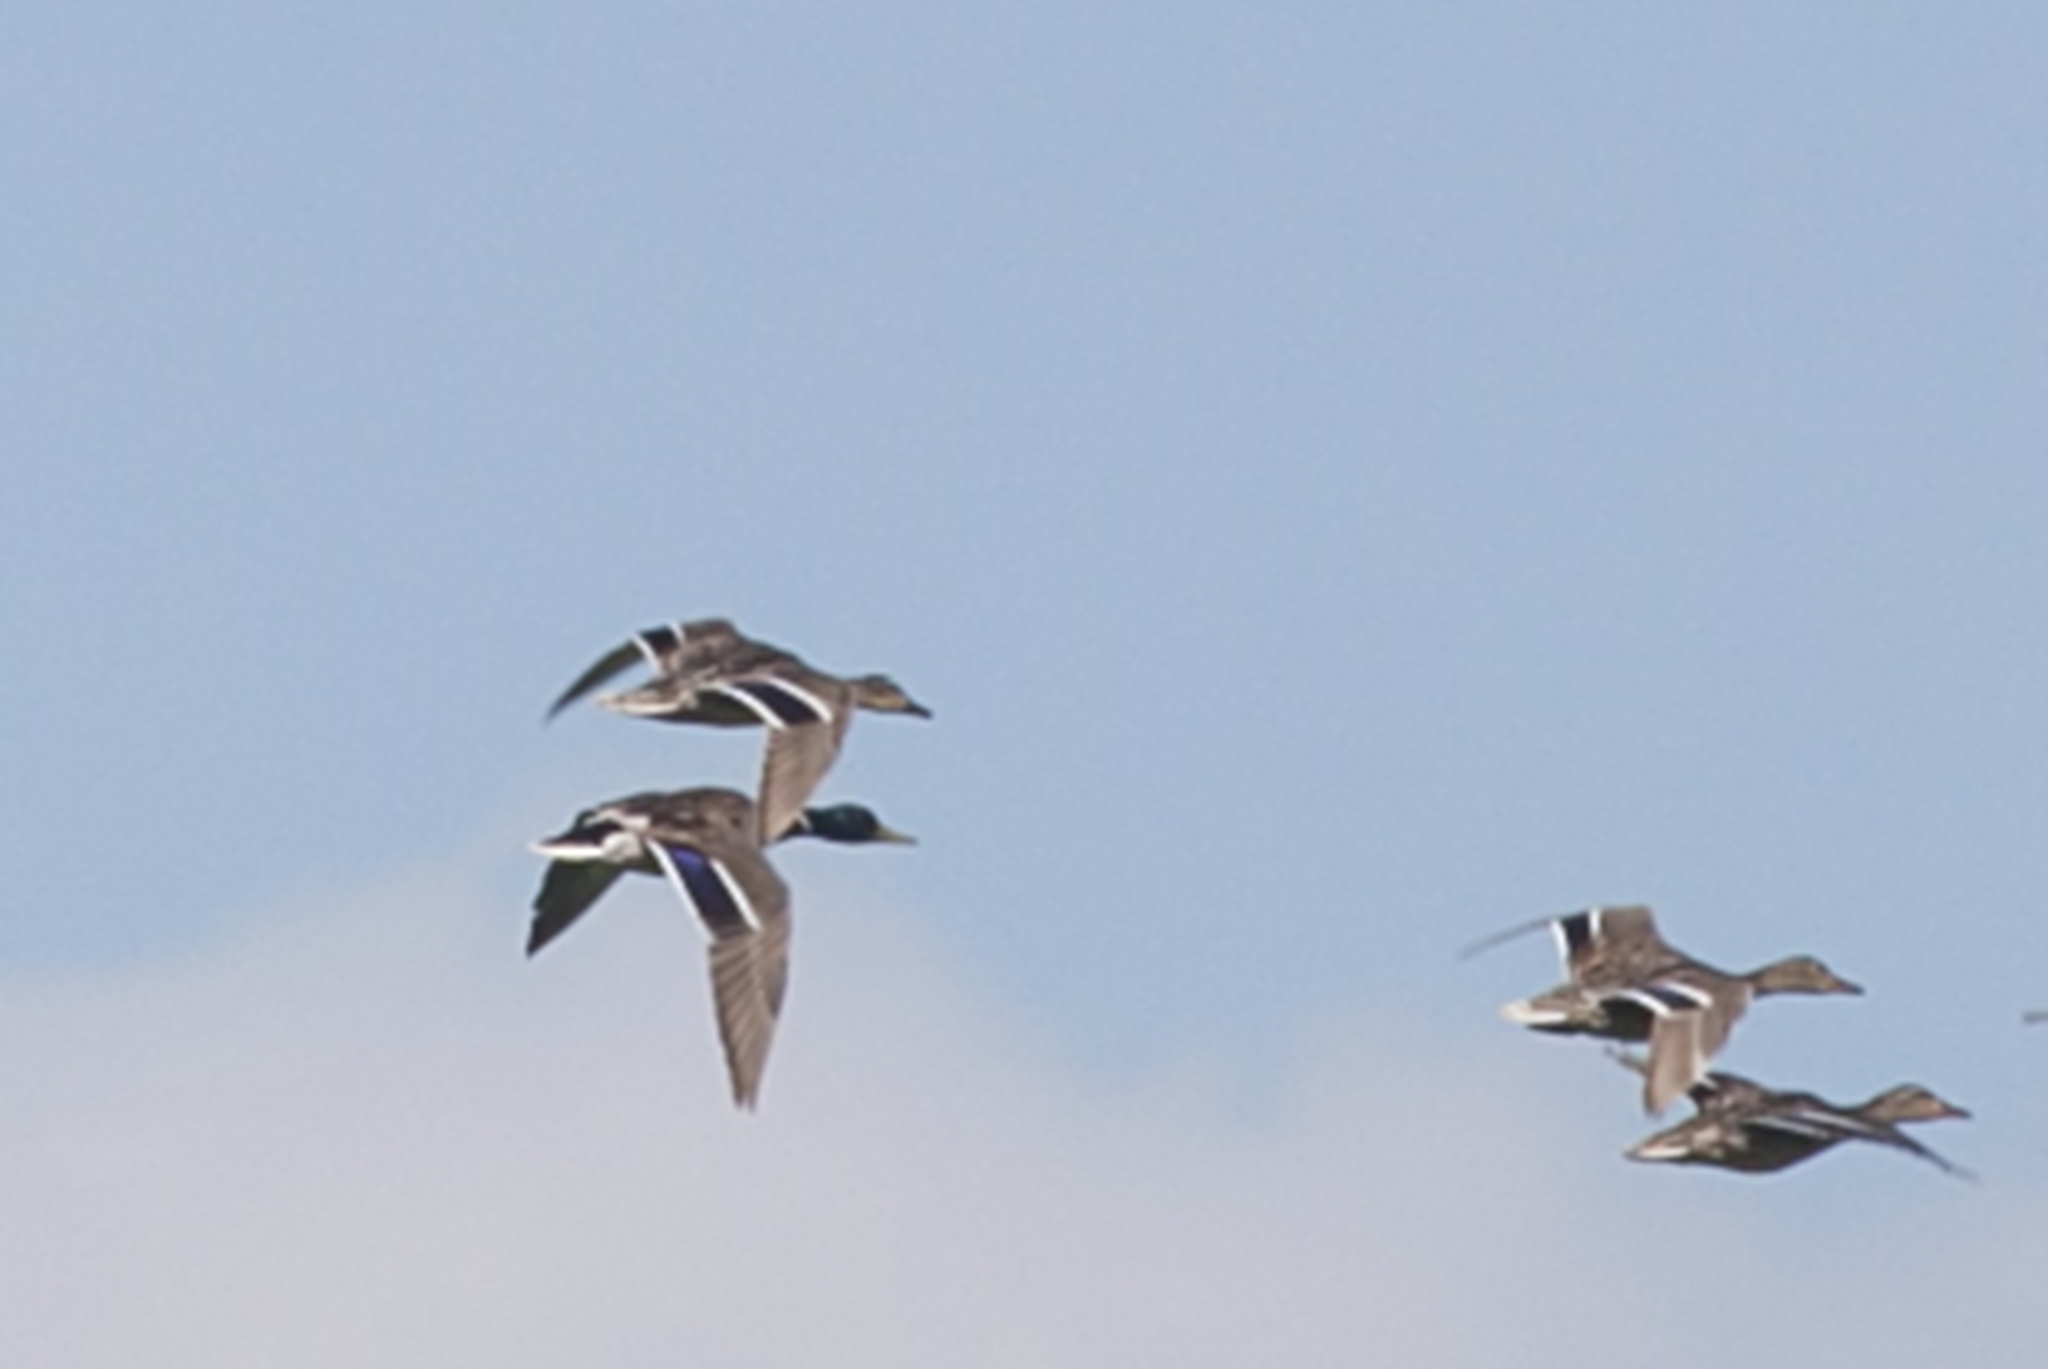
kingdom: Animalia
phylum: Chordata
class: Aves
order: Anseriformes
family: Anatidae
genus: Anas
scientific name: Anas platyrhynchos
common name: Mallard
